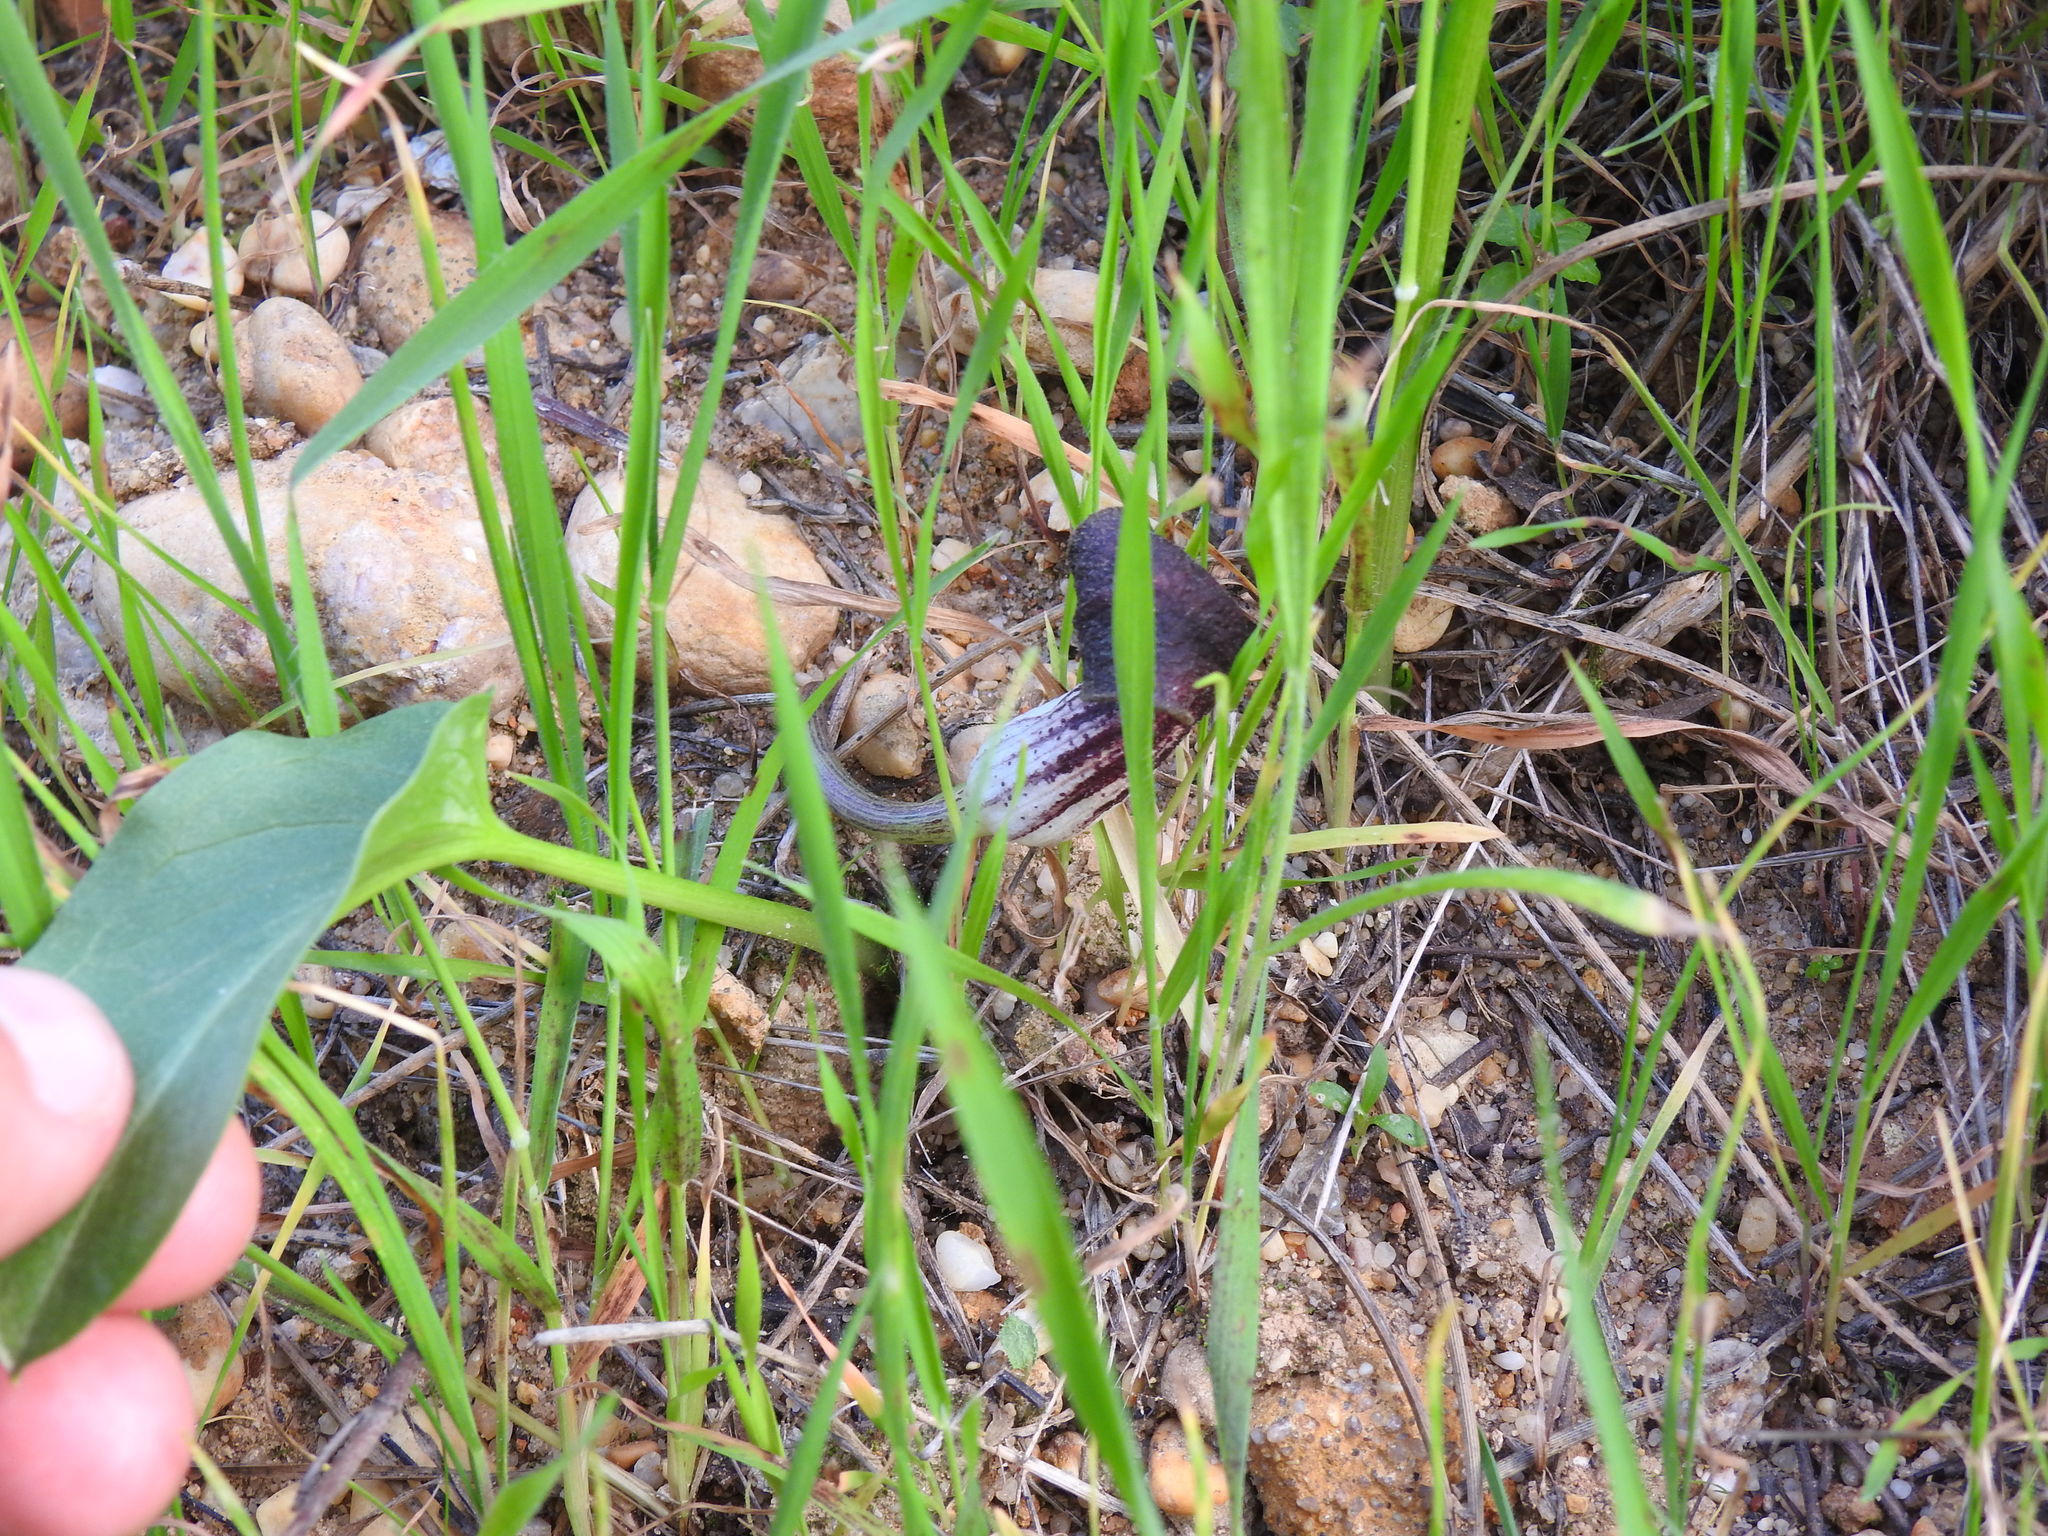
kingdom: Plantae
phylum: Tracheophyta
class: Liliopsida
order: Alismatales
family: Araceae
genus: Arisarum
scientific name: Arisarum simorrhinum
